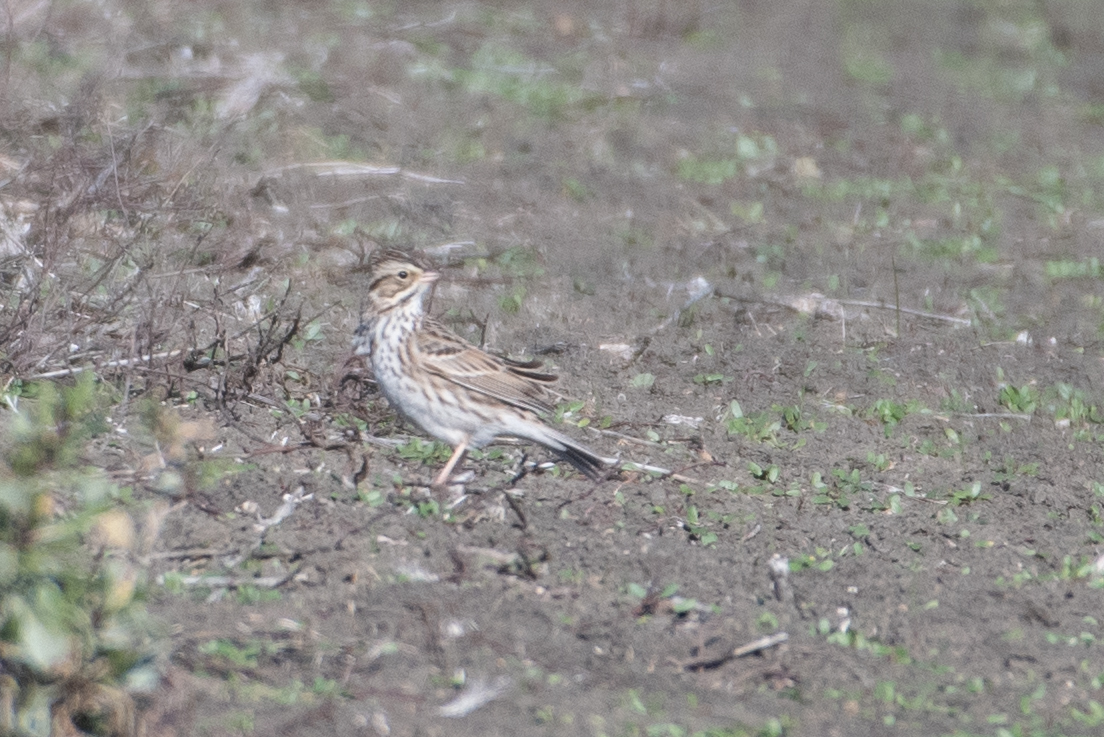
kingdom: Animalia
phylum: Chordata
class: Aves
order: Passeriformes
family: Passerellidae
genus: Passerculus
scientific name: Passerculus sandwichensis
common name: Savannah sparrow
